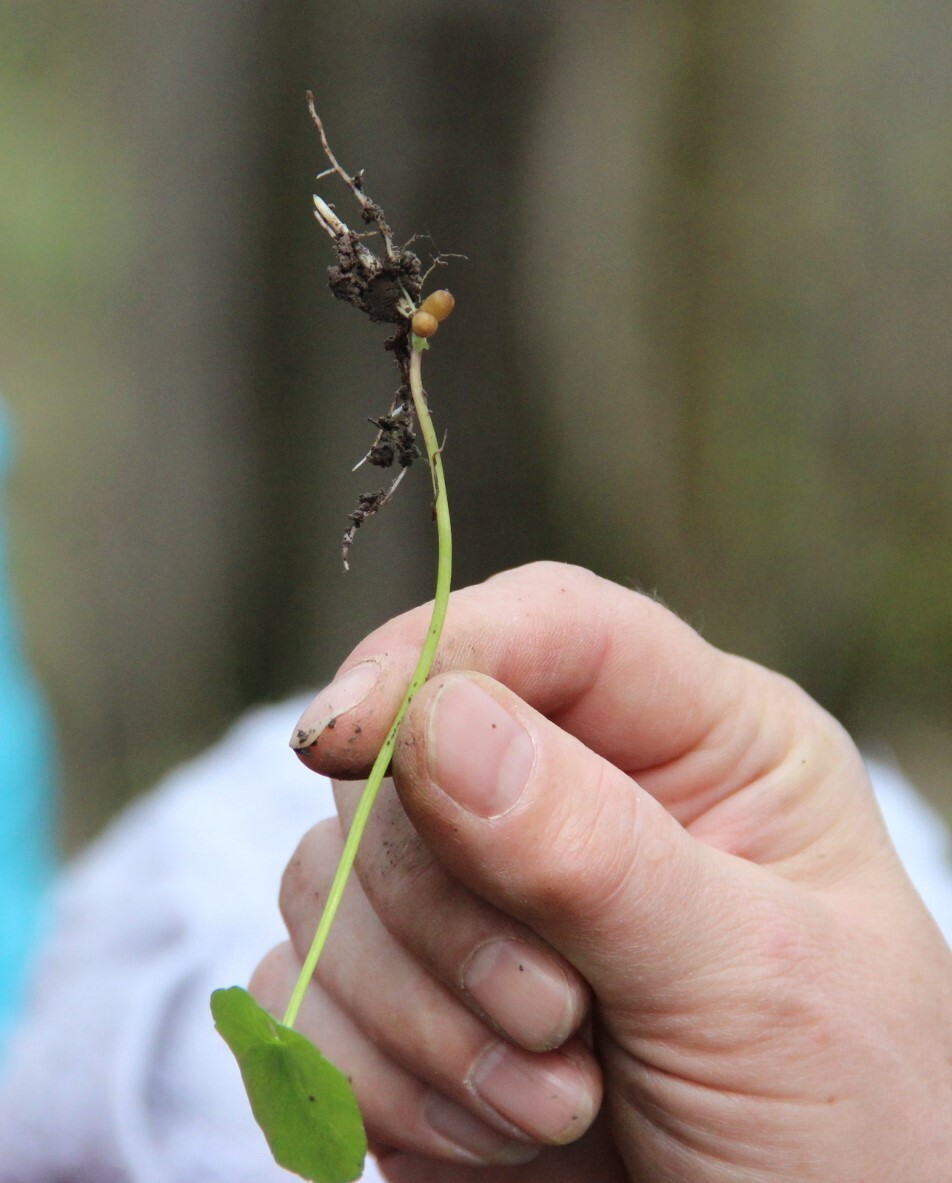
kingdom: Plantae
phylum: Tracheophyta
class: Magnoliopsida
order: Ranunculales
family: Ranunculaceae
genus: Ficaria
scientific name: Ficaria verna
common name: Lesser celandine
